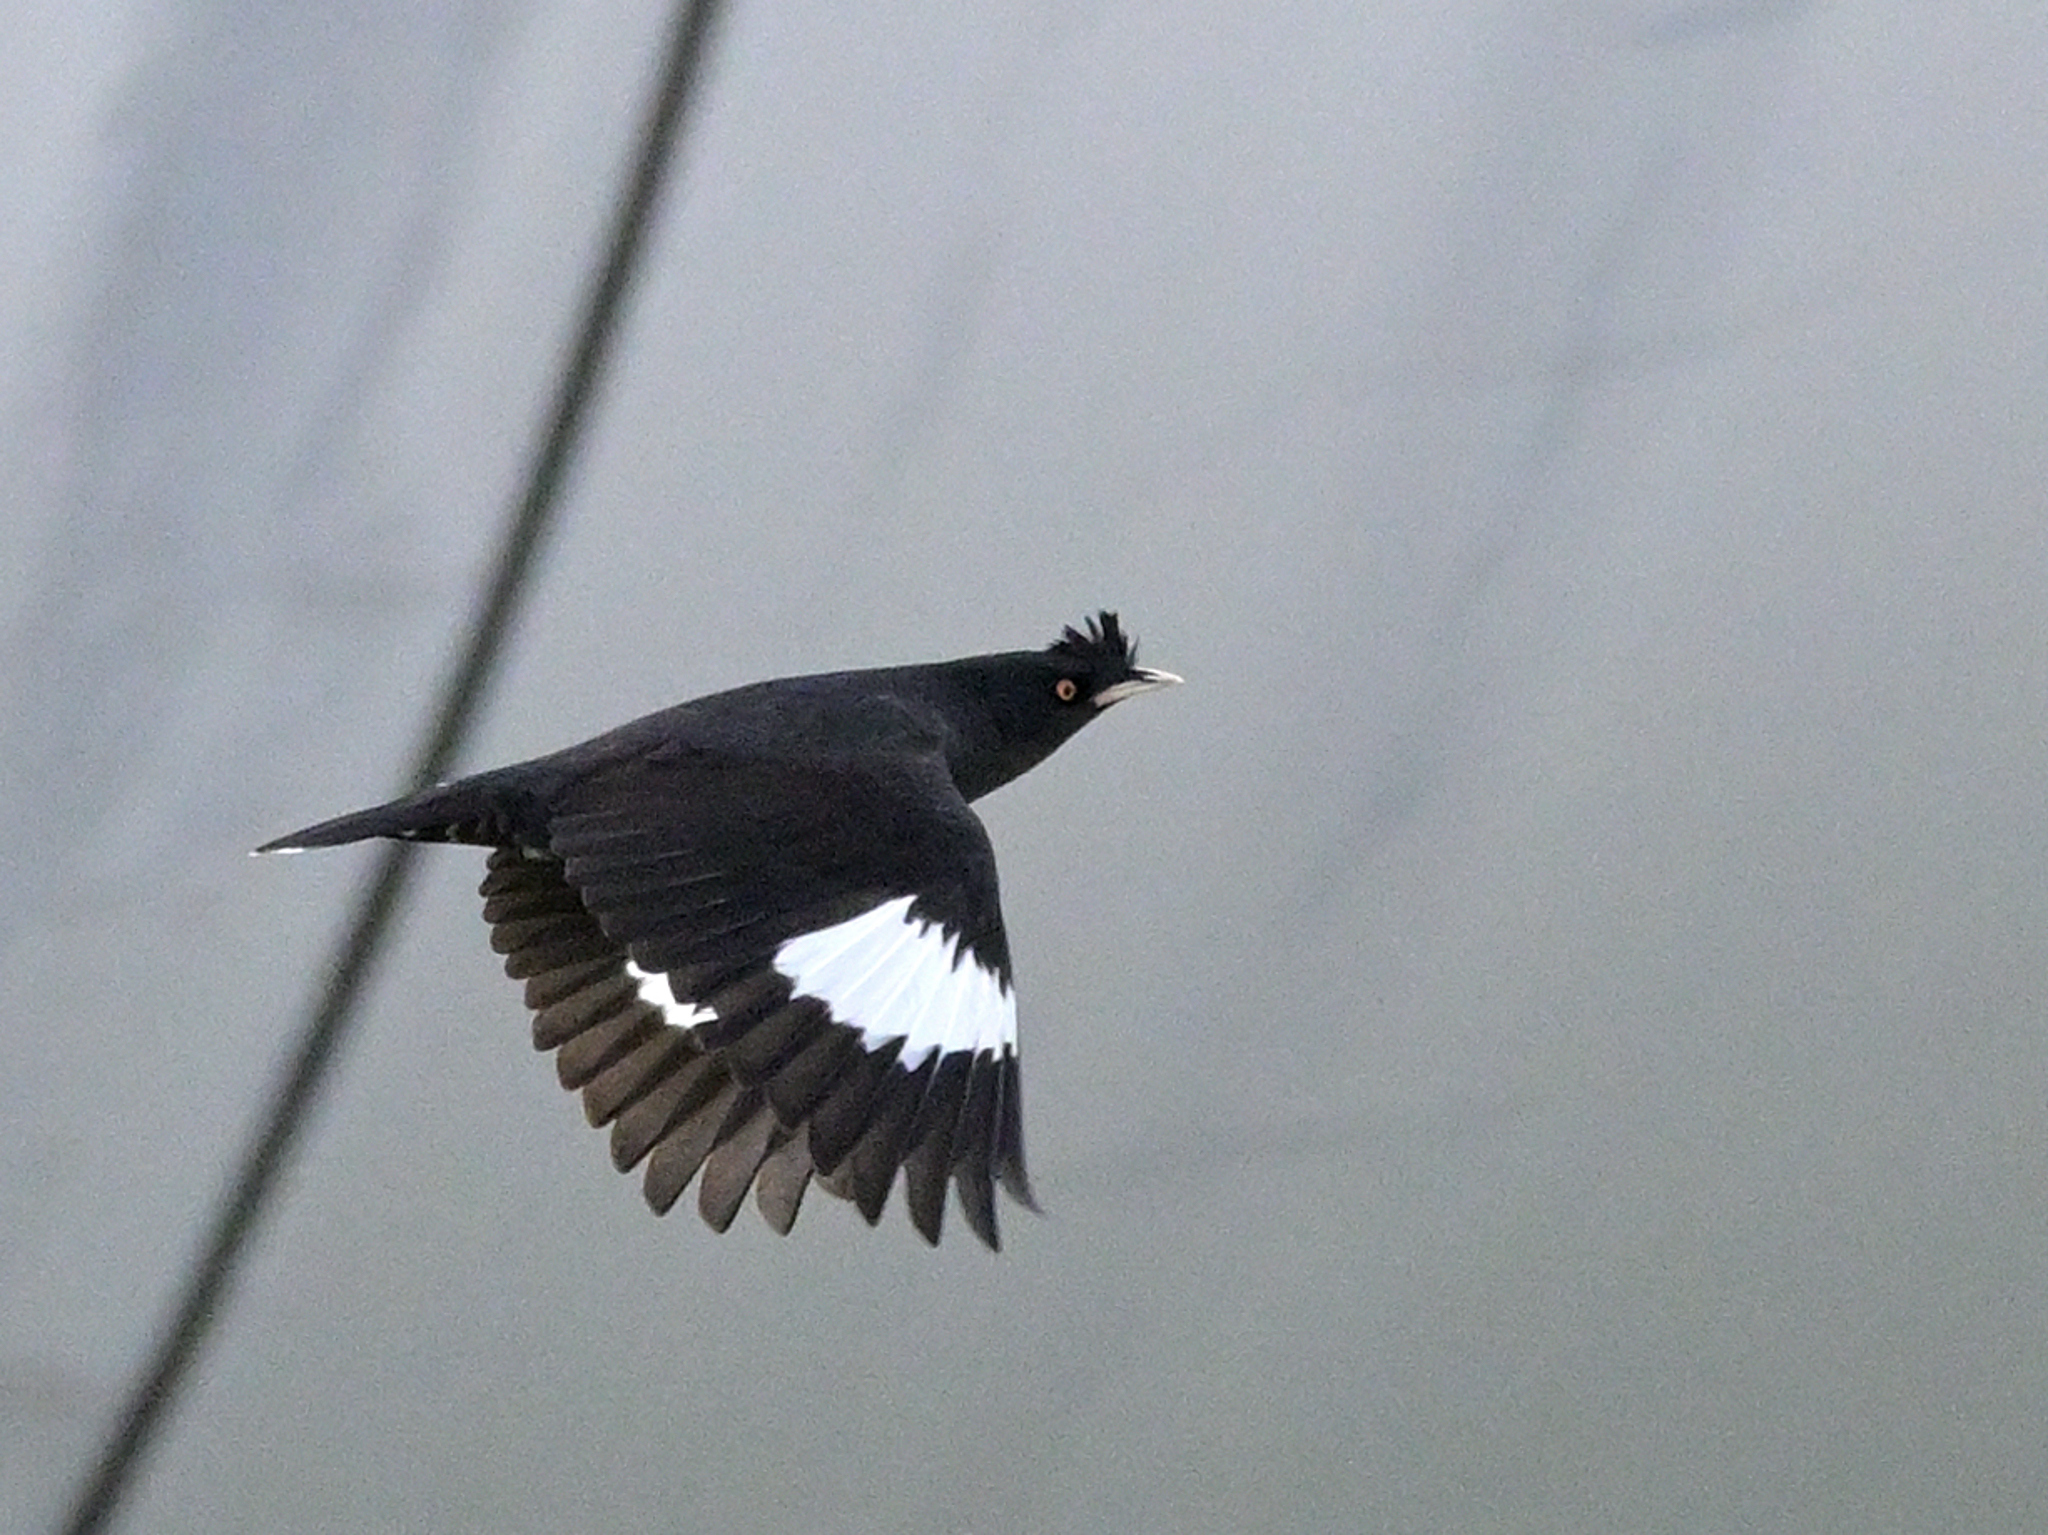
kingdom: Animalia
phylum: Chordata
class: Aves
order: Passeriformes
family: Sturnidae
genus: Acridotheres
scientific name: Acridotheres cristatellus
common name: Crested myna
